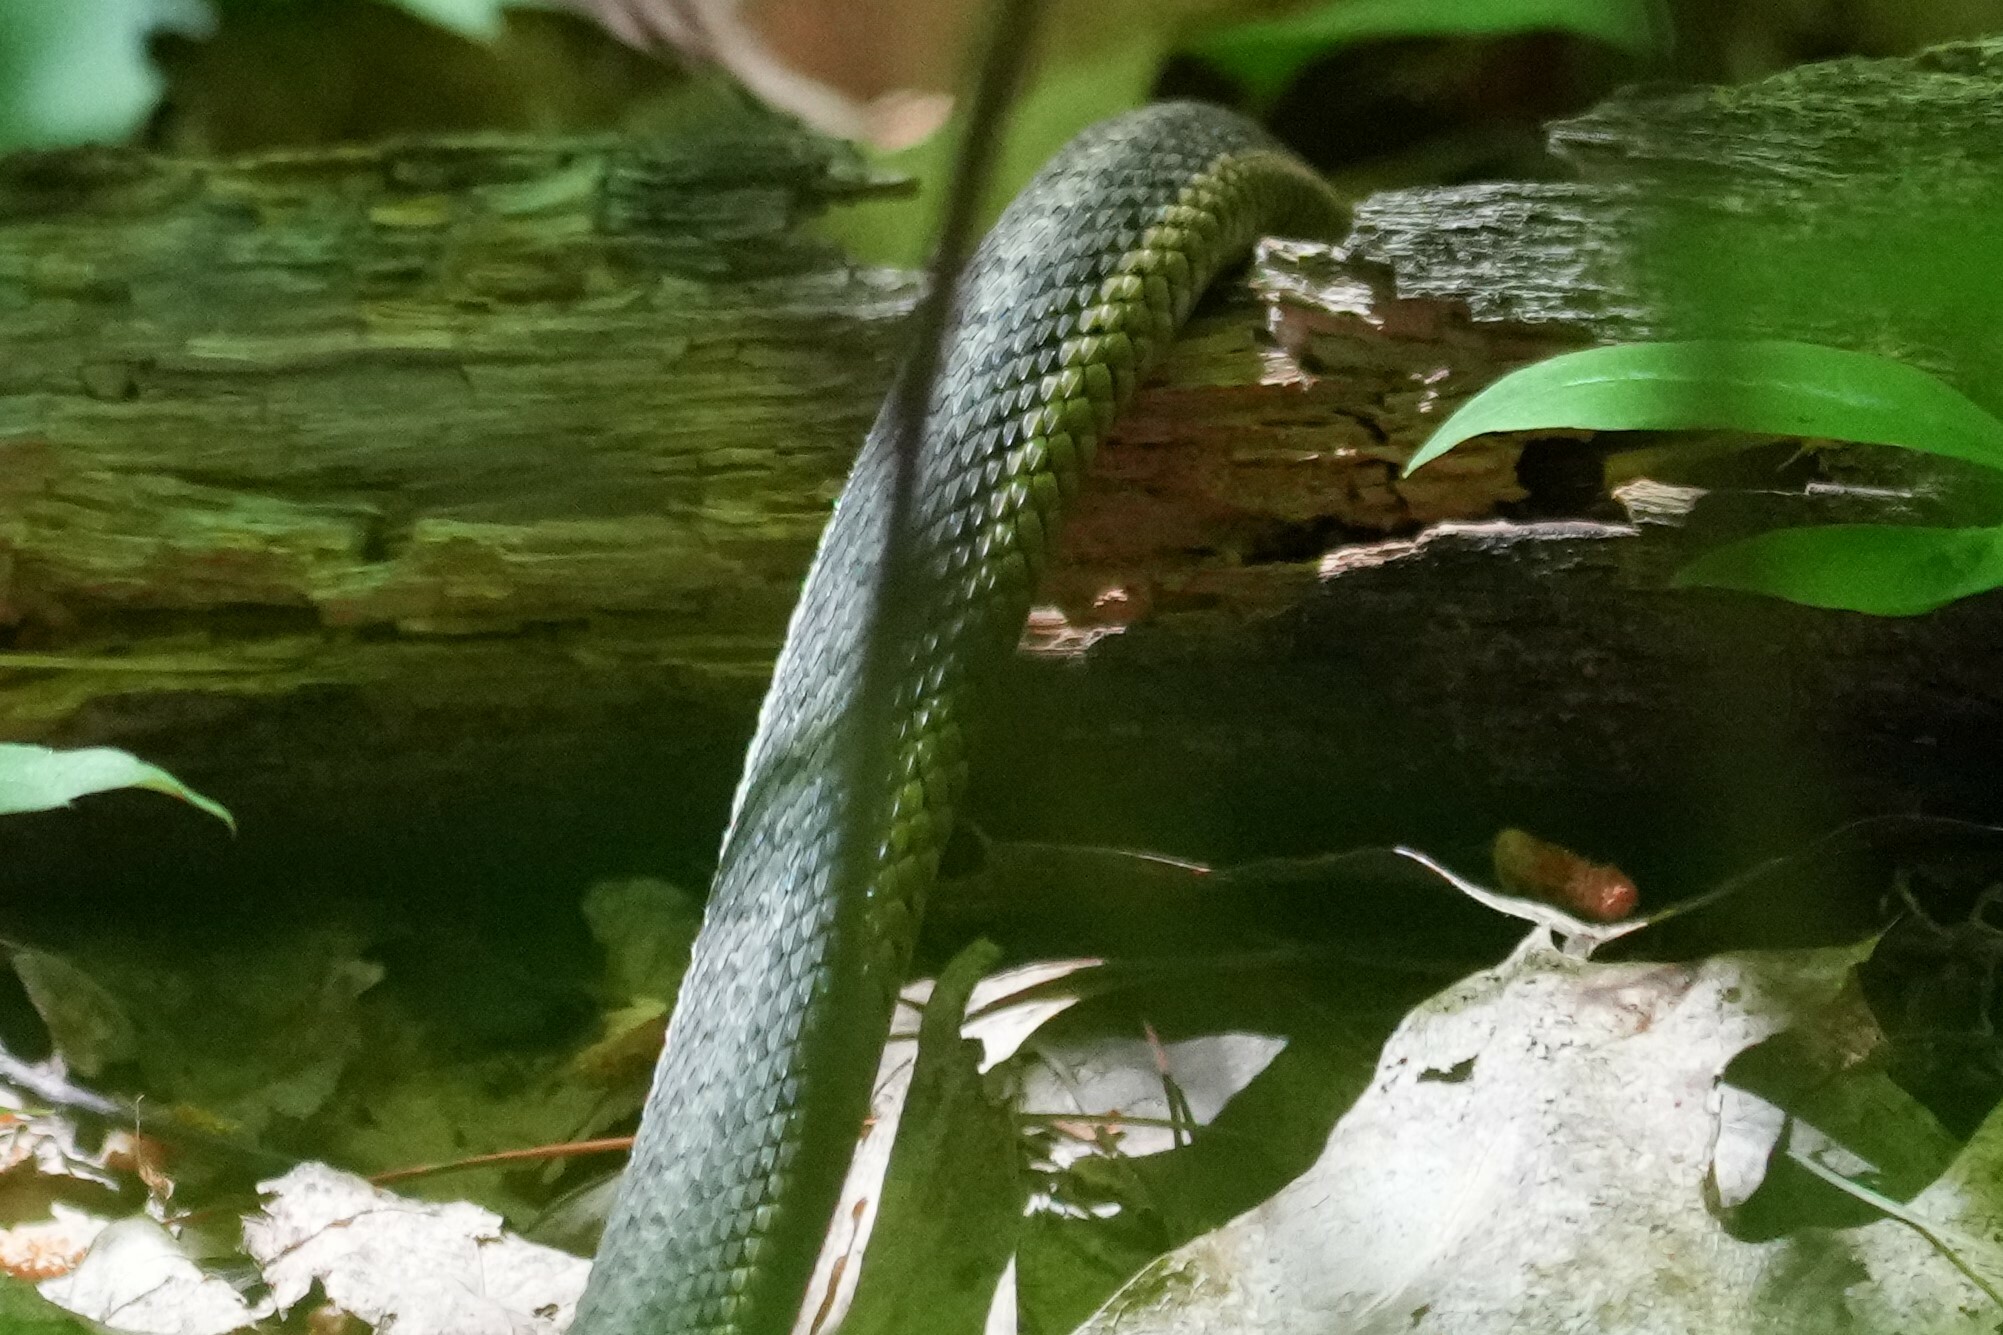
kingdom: Animalia
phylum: Chordata
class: Squamata
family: Colubridae
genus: Thamnophis
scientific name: Thamnophis sirtalis
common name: Common garter snake
